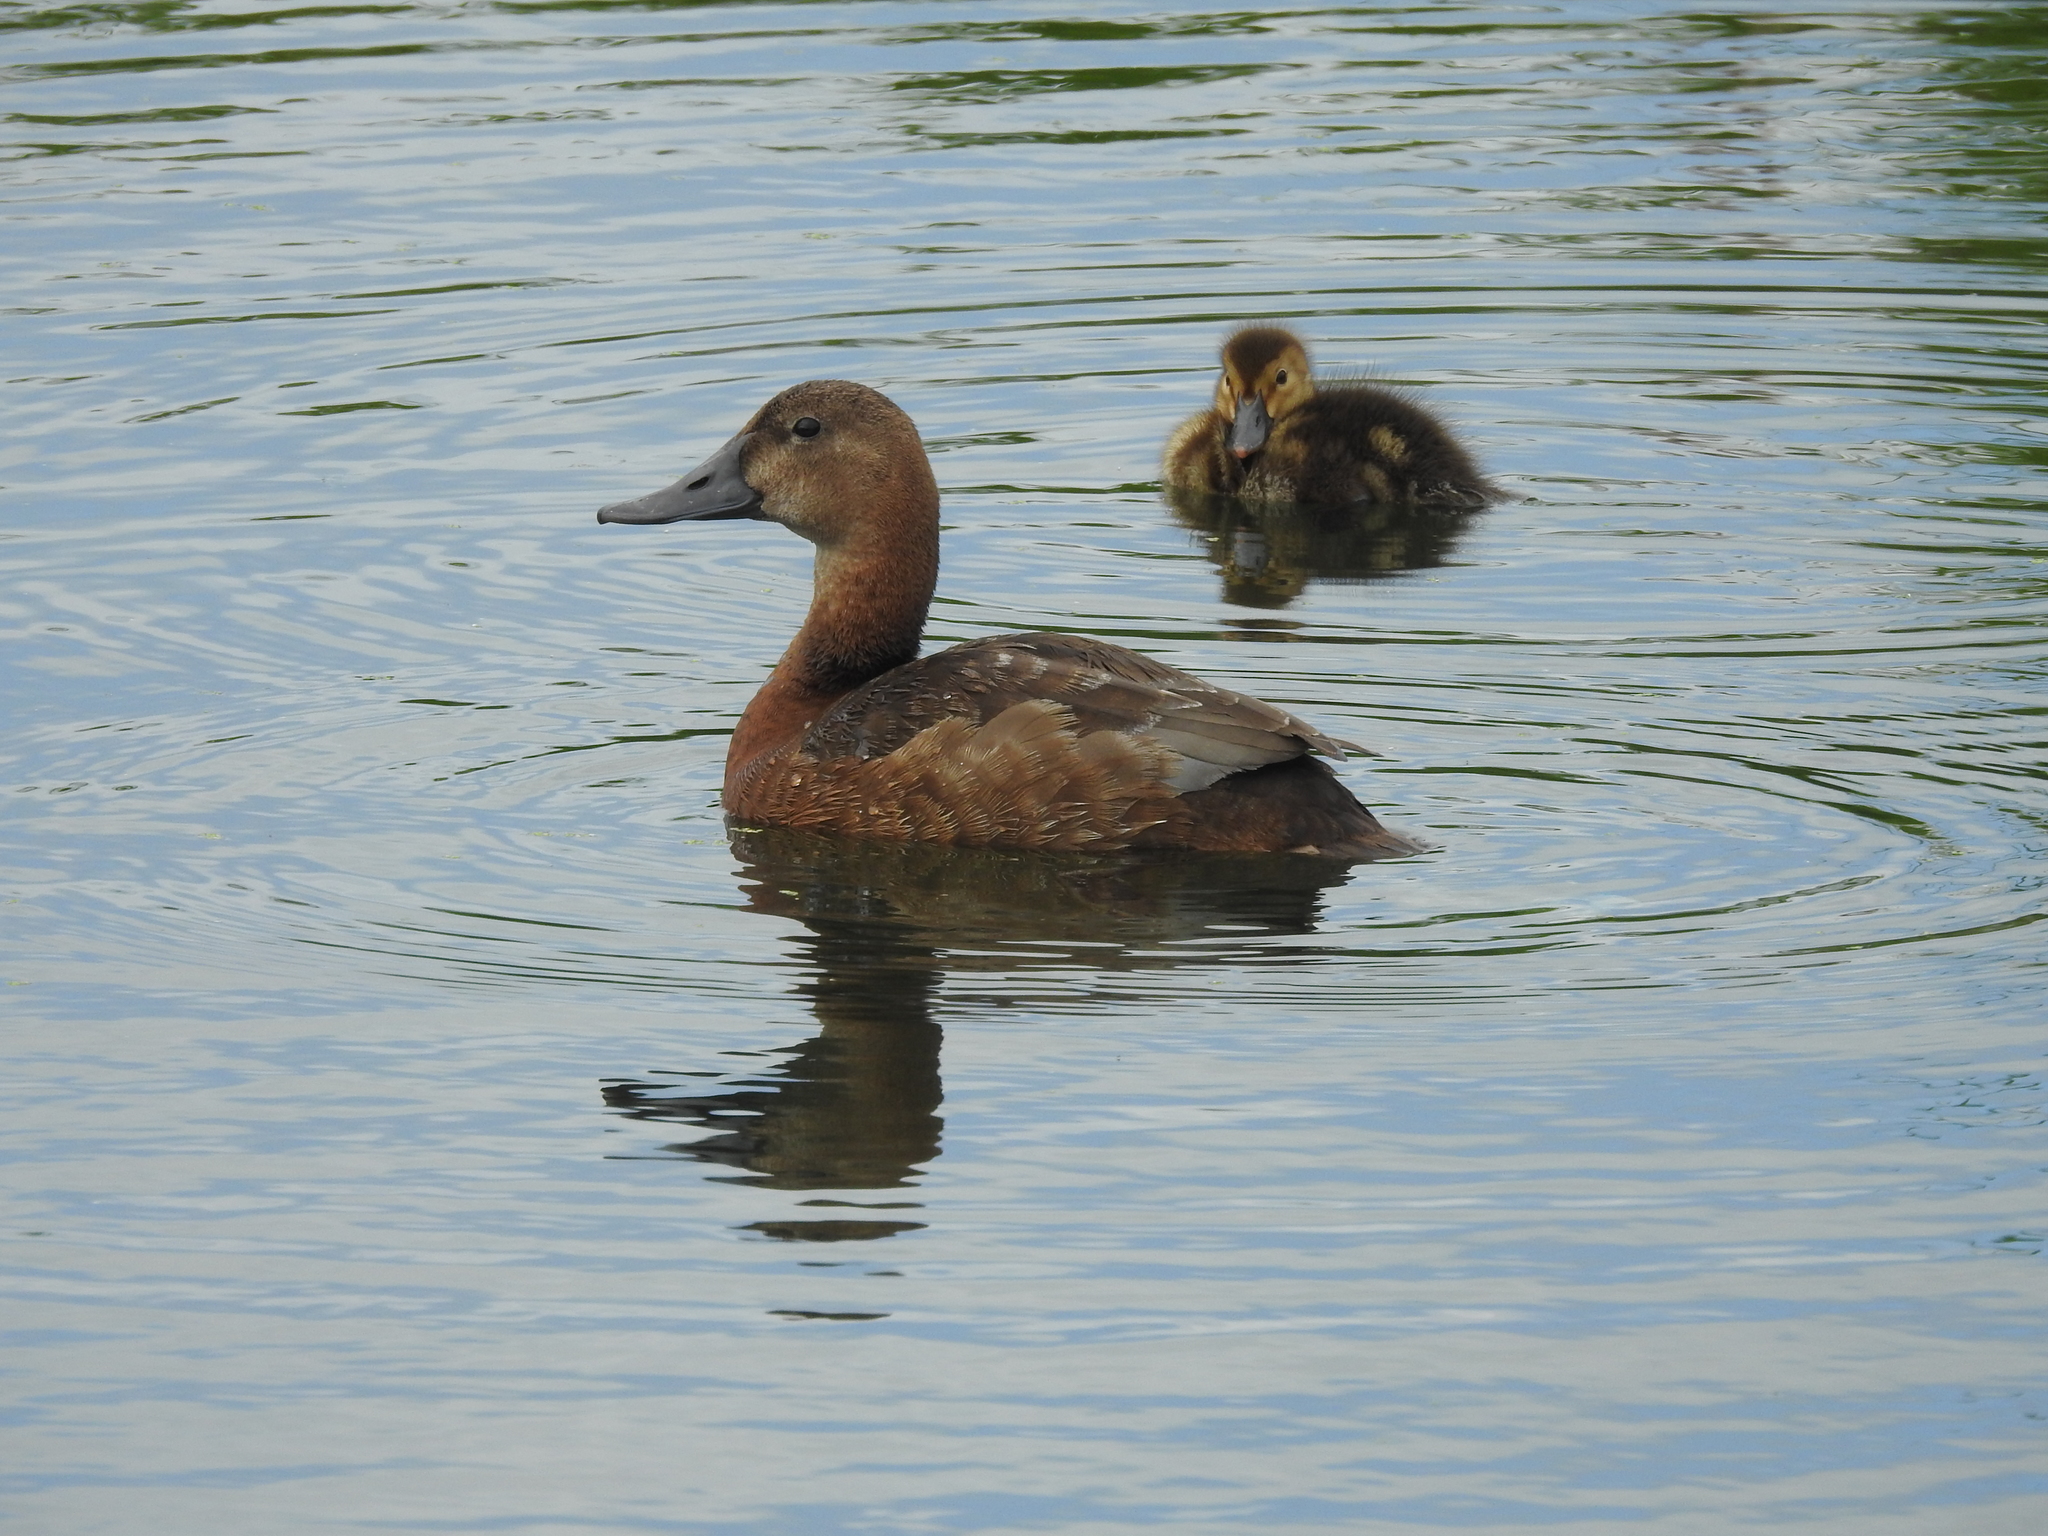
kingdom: Animalia
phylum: Chordata
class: Aves
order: Anseriformes
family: Anatidae
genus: Aythya
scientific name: Aythya ferina
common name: Common pochard
